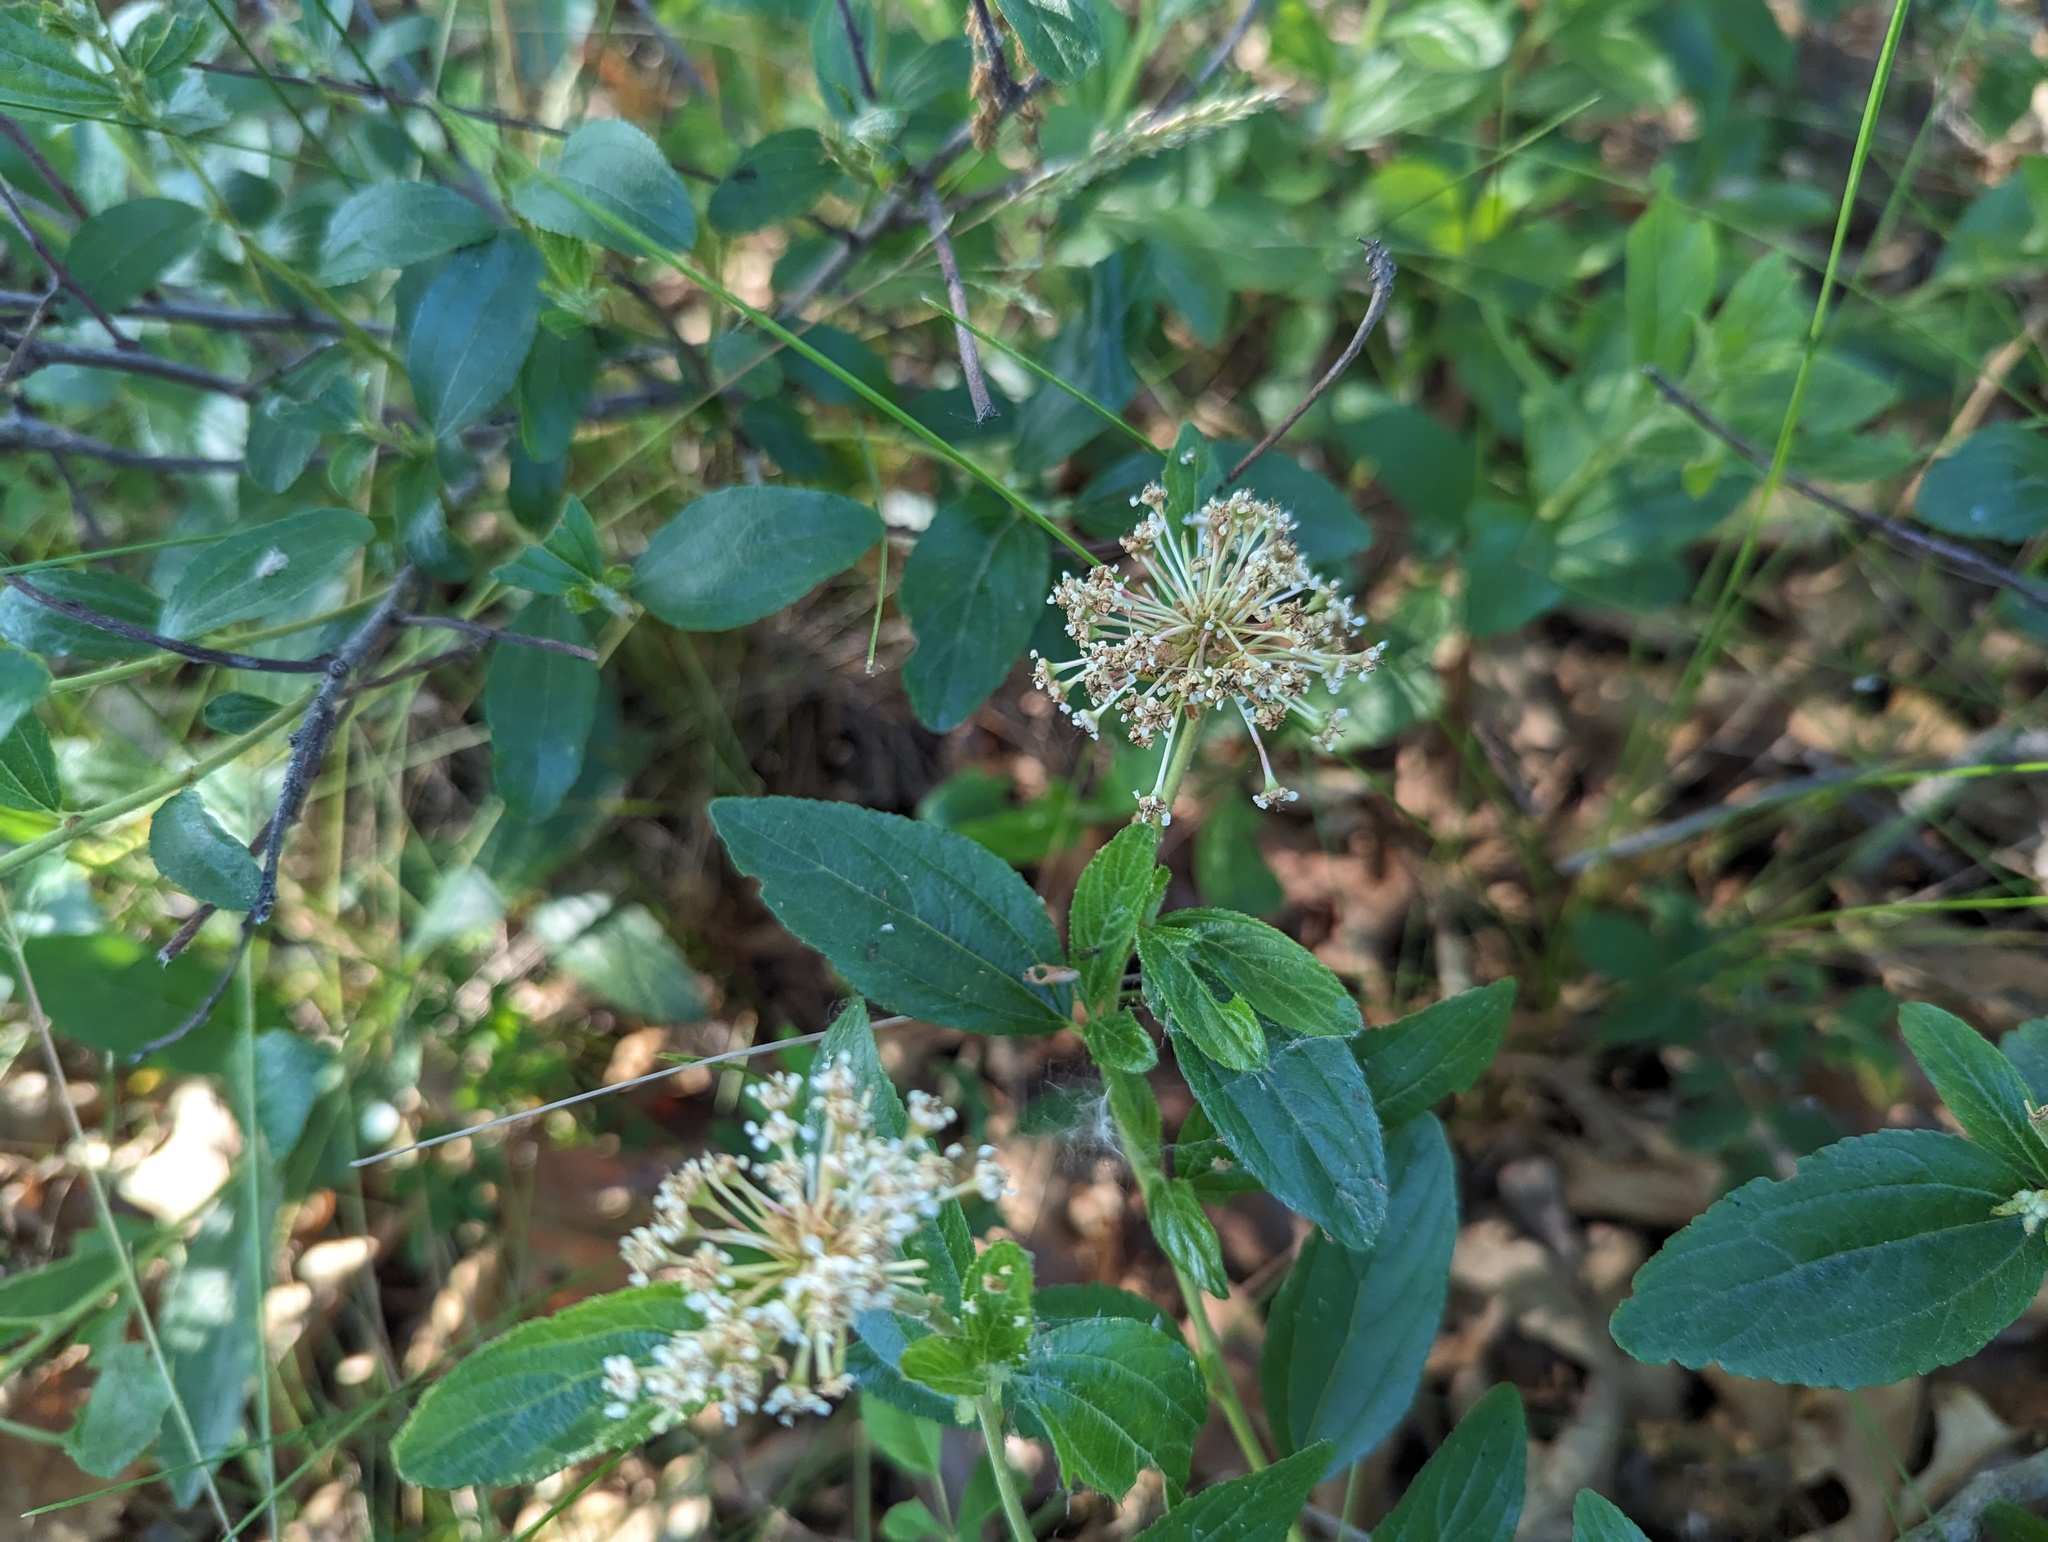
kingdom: Plantae
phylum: Tracheophyta
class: Magnoliopsida
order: Rosales
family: Rhamnaceae
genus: Ceanothus
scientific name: Ceanothus herbaceus
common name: Inland ceanothus
